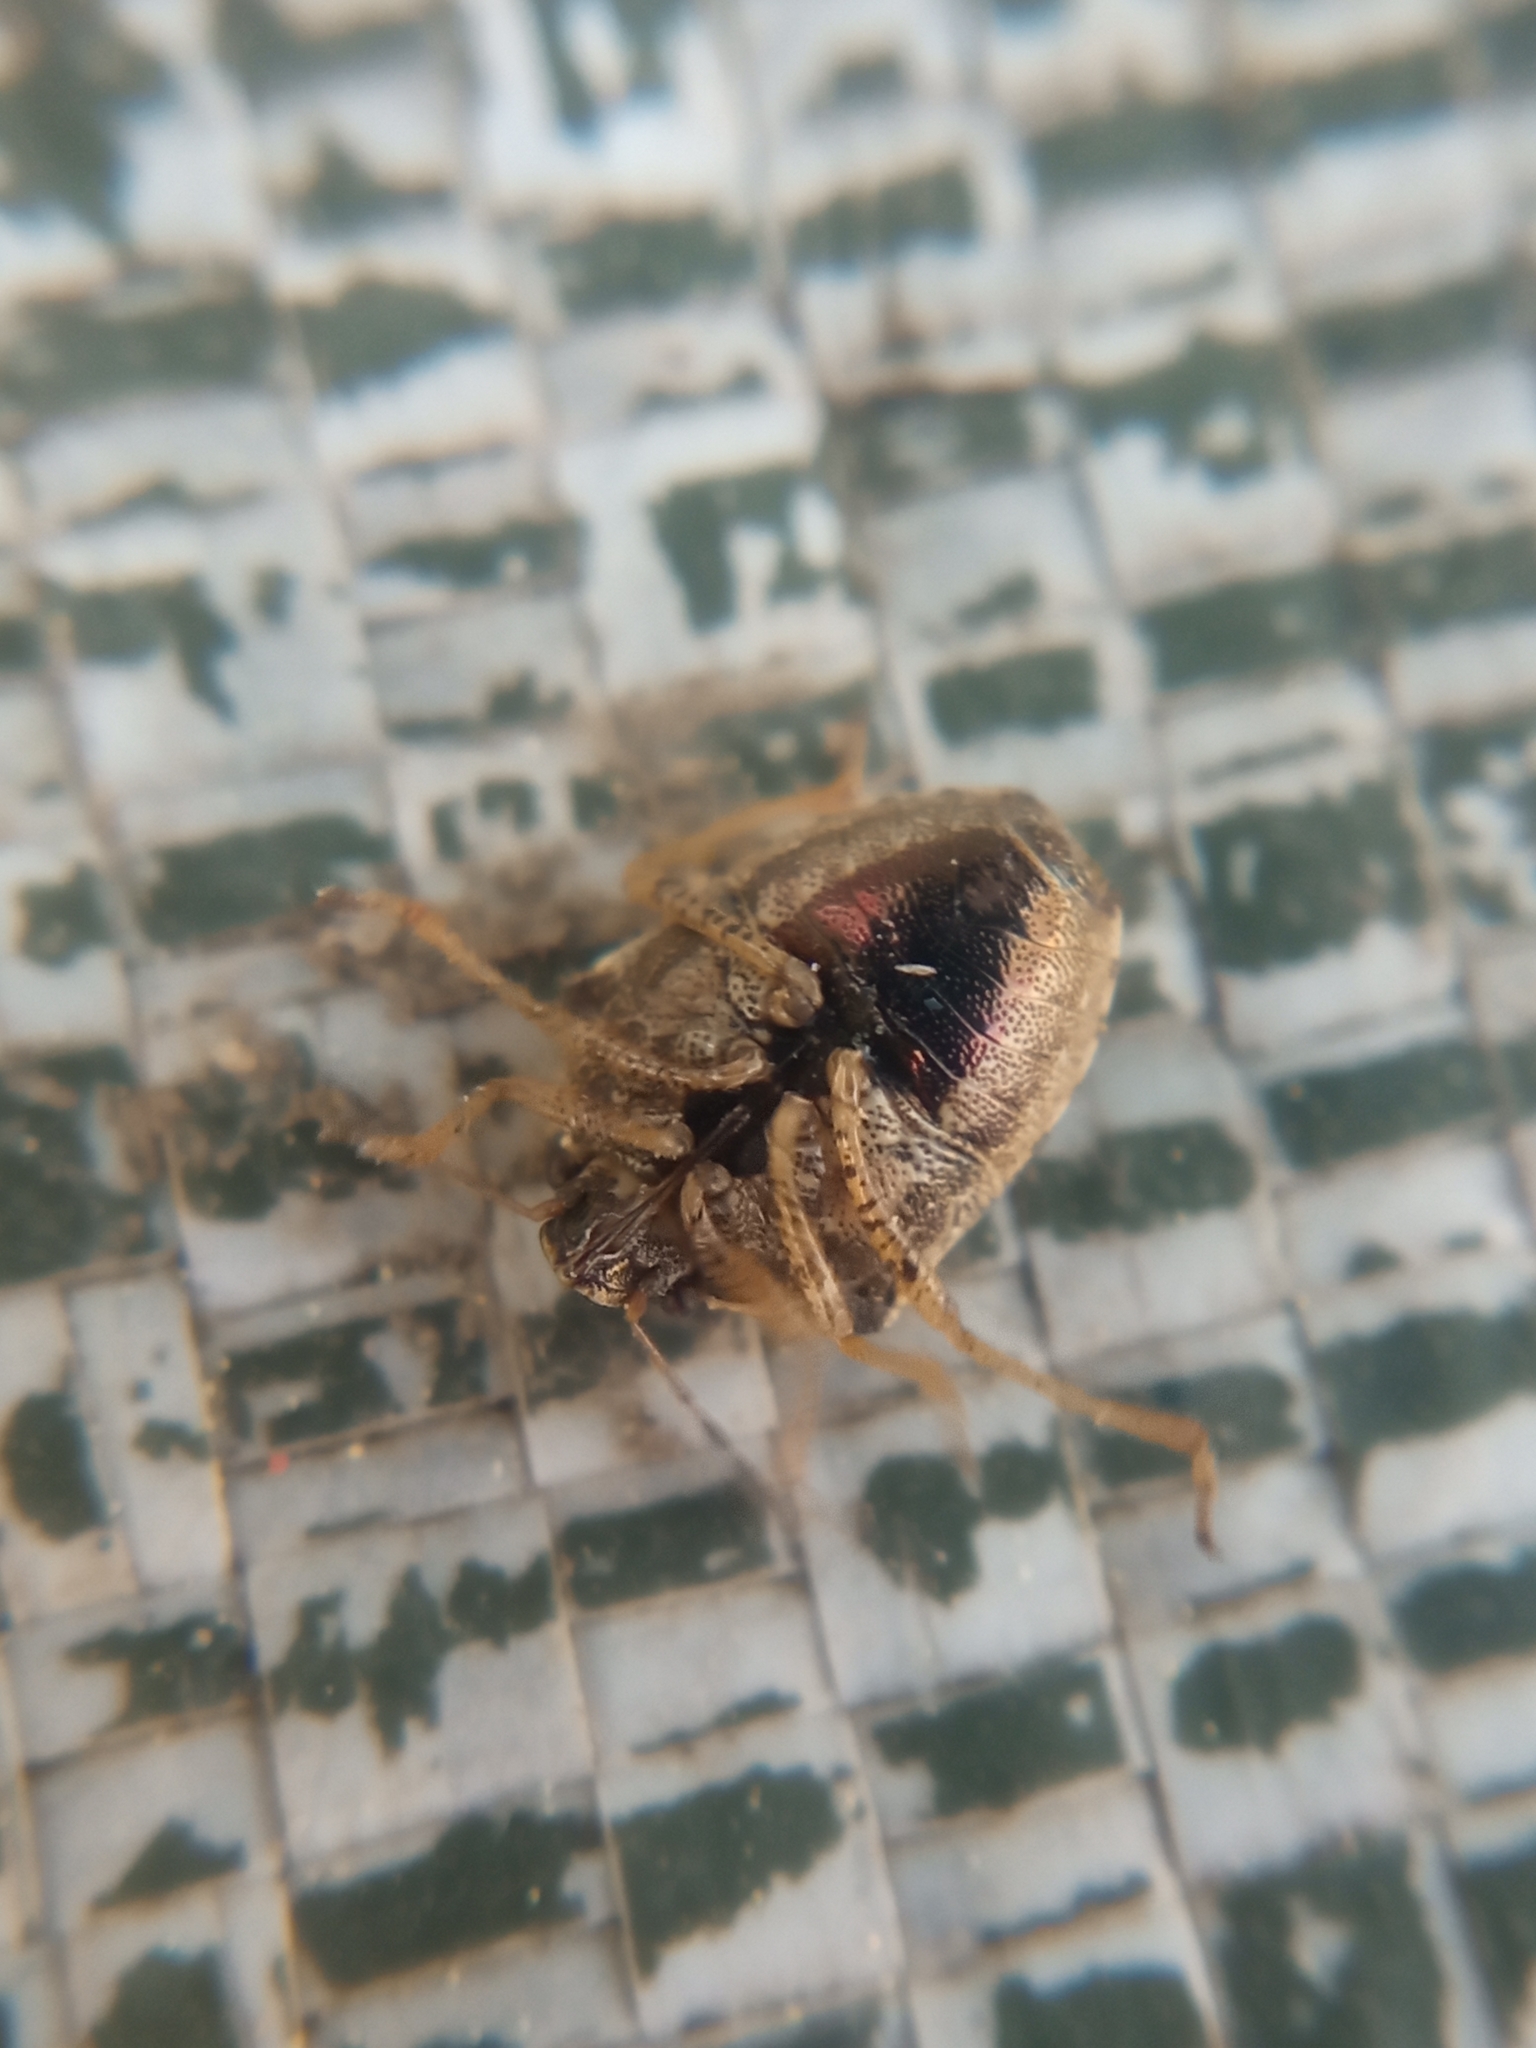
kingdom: Animalia
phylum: Arthropoda
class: Insecta
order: Hemiptera
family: Pentatomidae
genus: Eysarcoris
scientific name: Eysarcoris ventralis
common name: White-spotted stink bug
